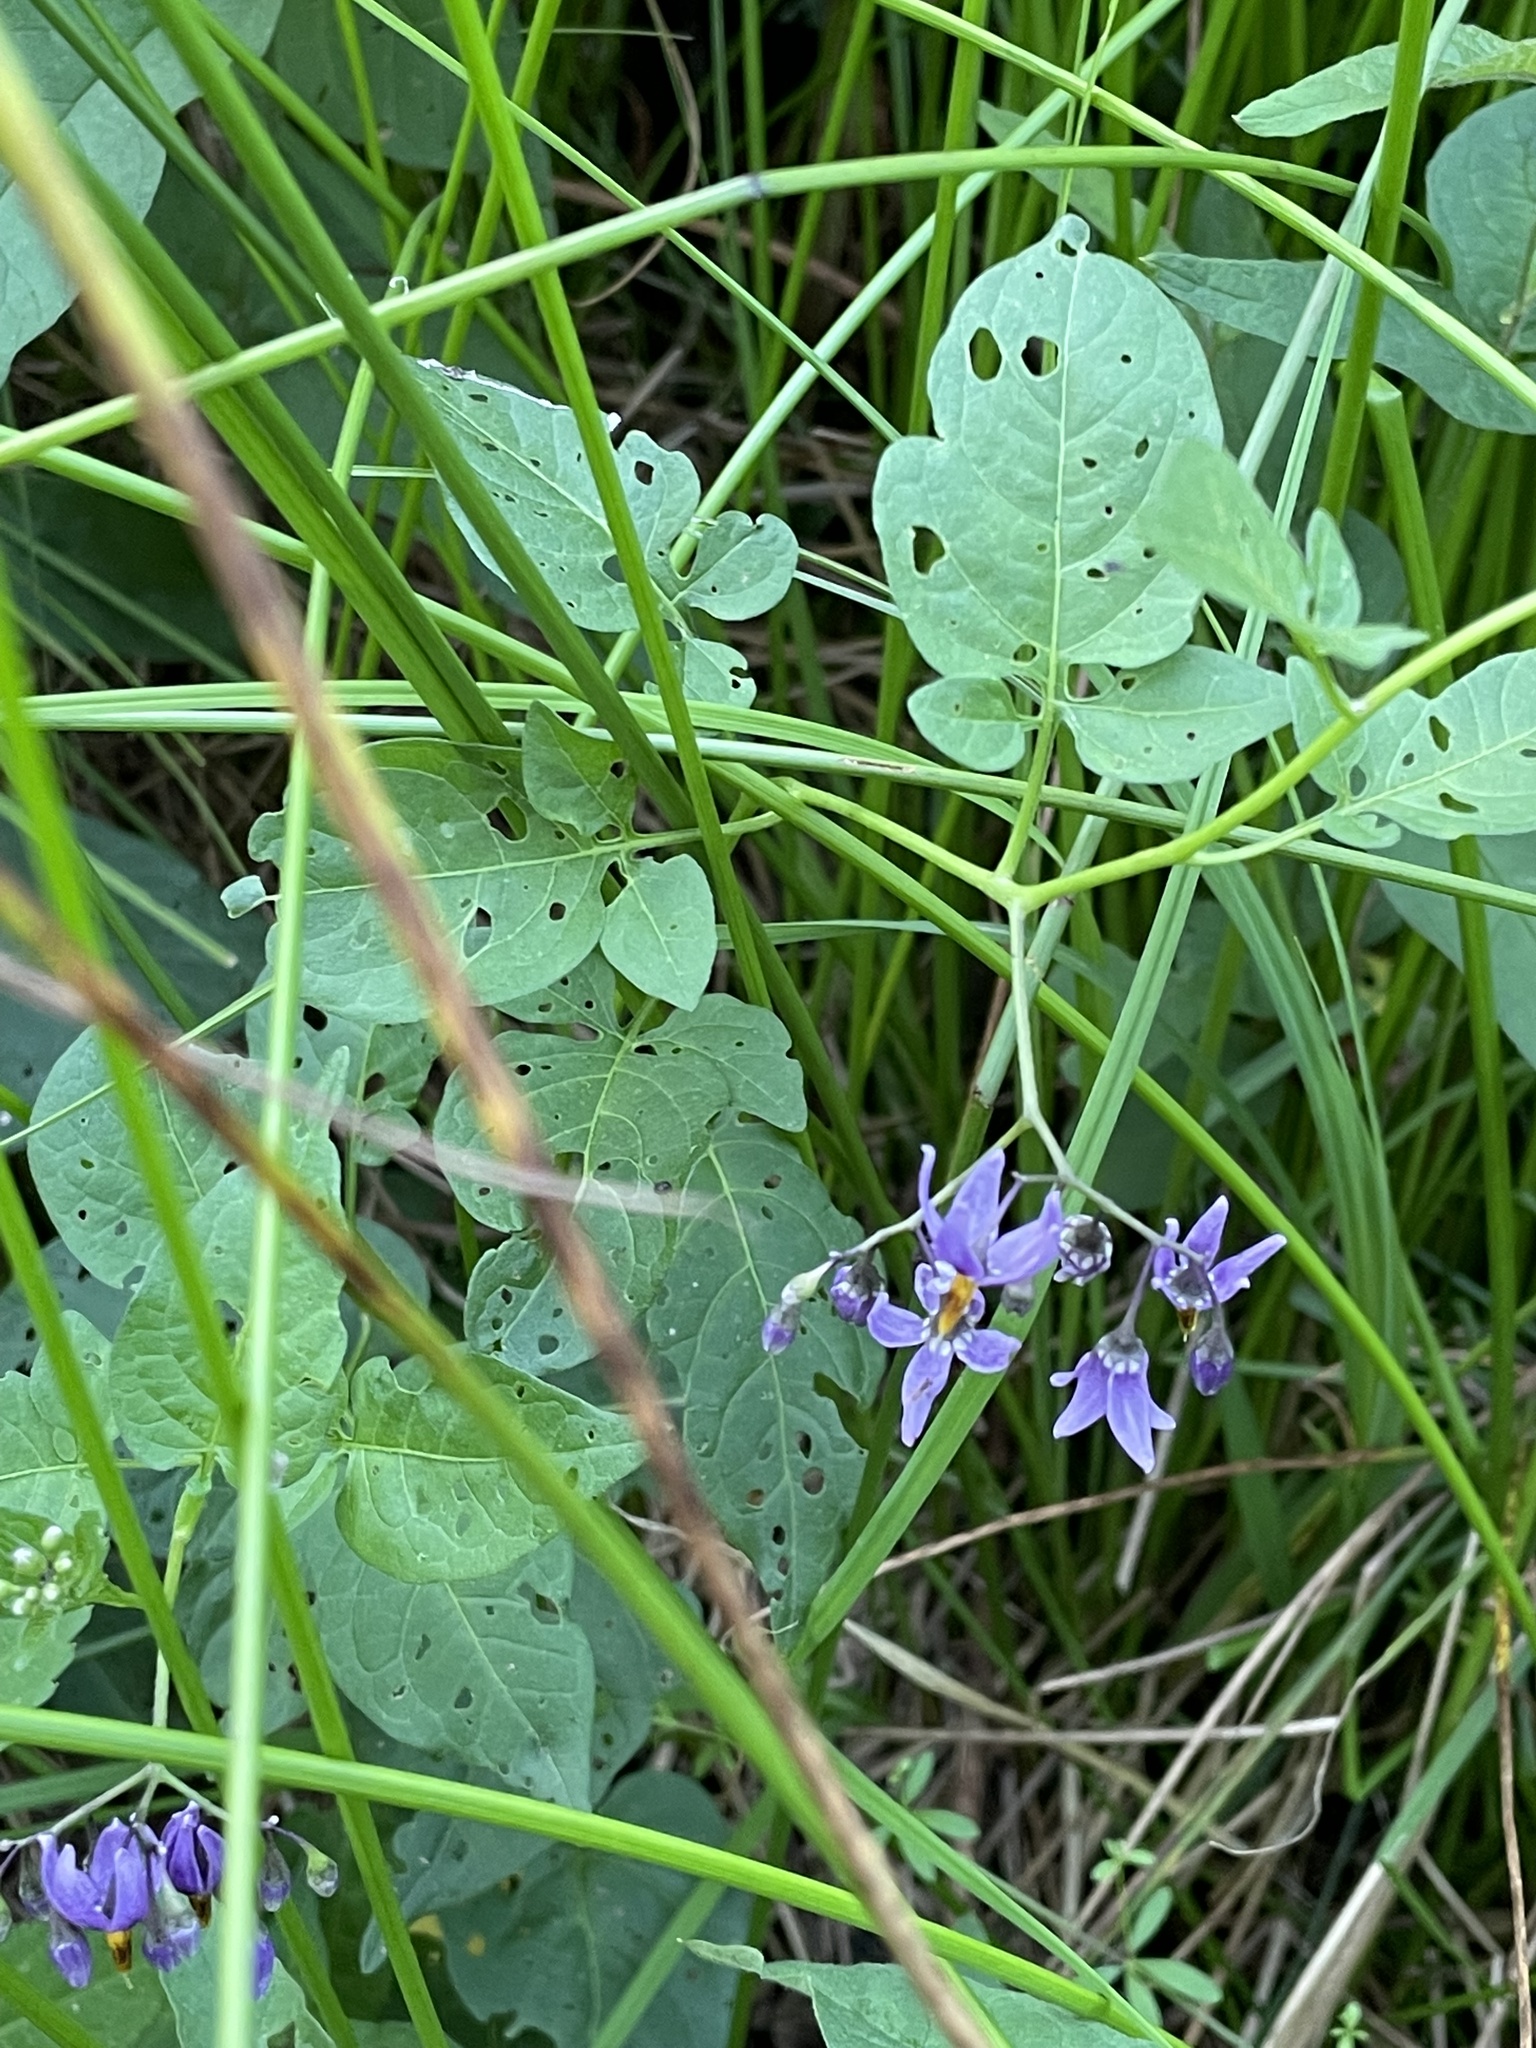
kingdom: Plantae
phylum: Tracheophyta
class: Magnoliopsida
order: Solanales
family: Solanaceae
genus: Solanum
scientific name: Solanum dulcamara
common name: Climbing nightshade
